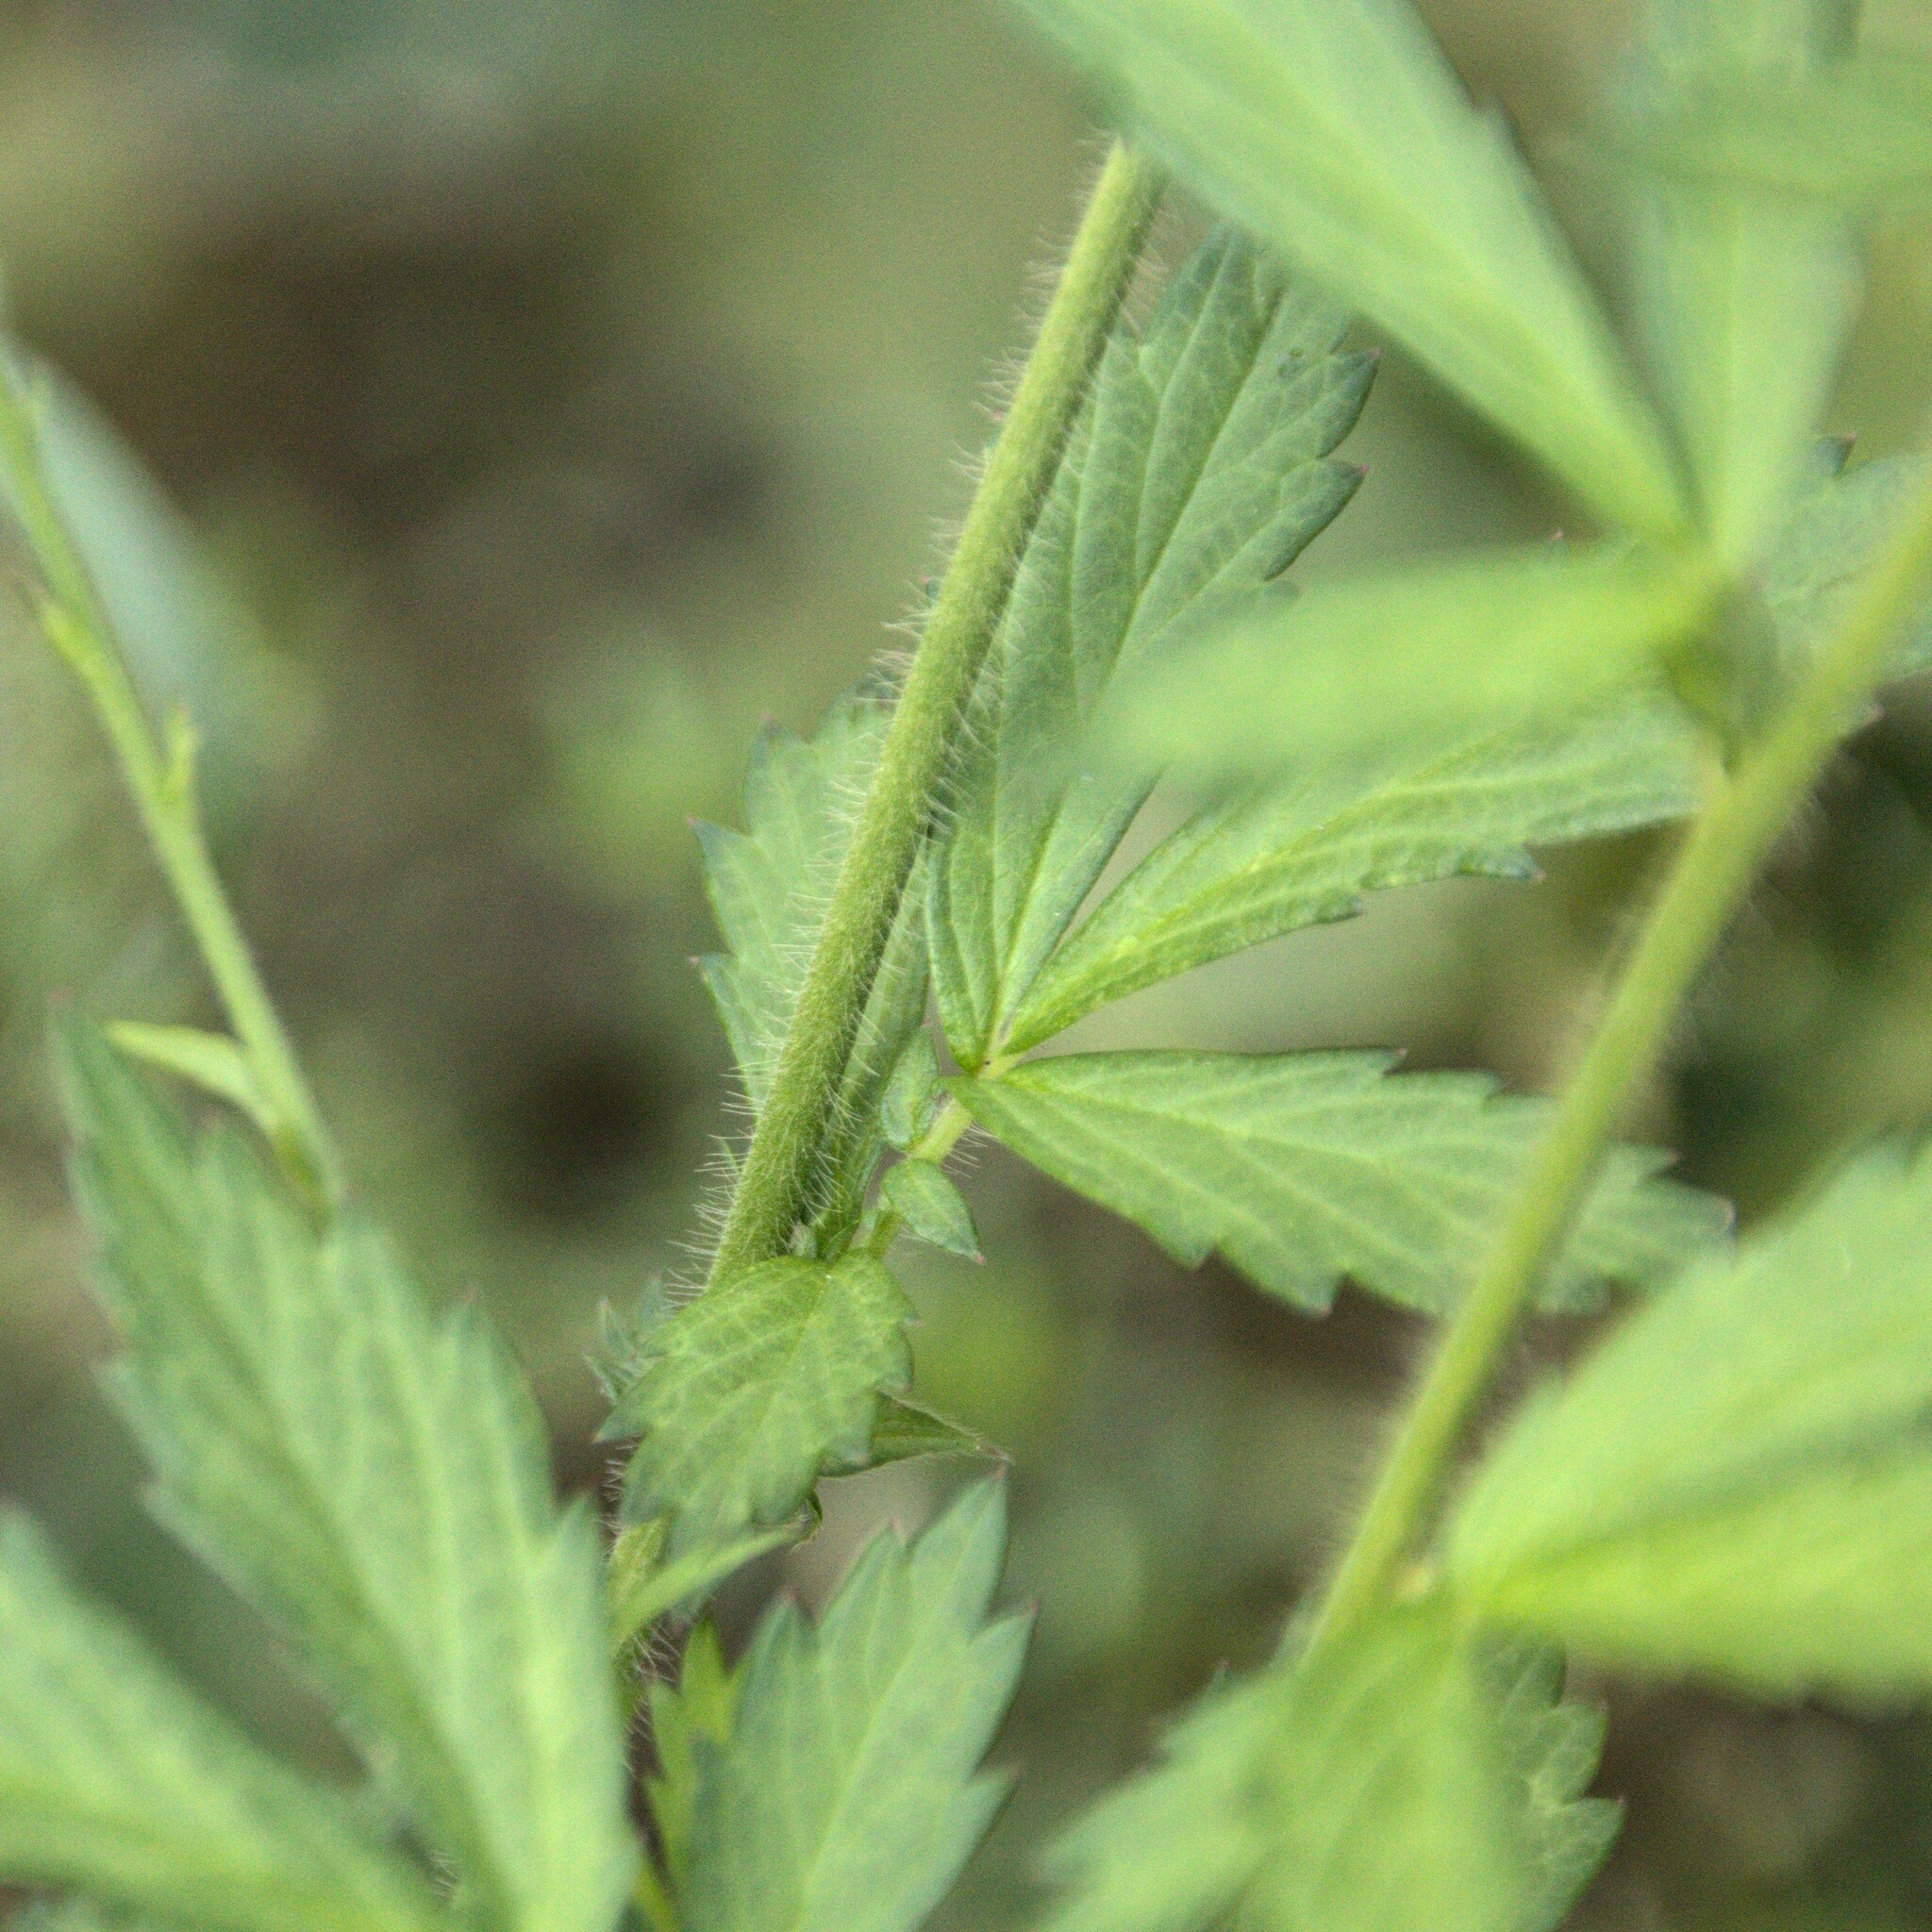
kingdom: Plantae
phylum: Tracheophyta
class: Magnoliopsida
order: Rosales
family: Rosaceae
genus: Agrimonia
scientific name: Agrimonia pilosa
